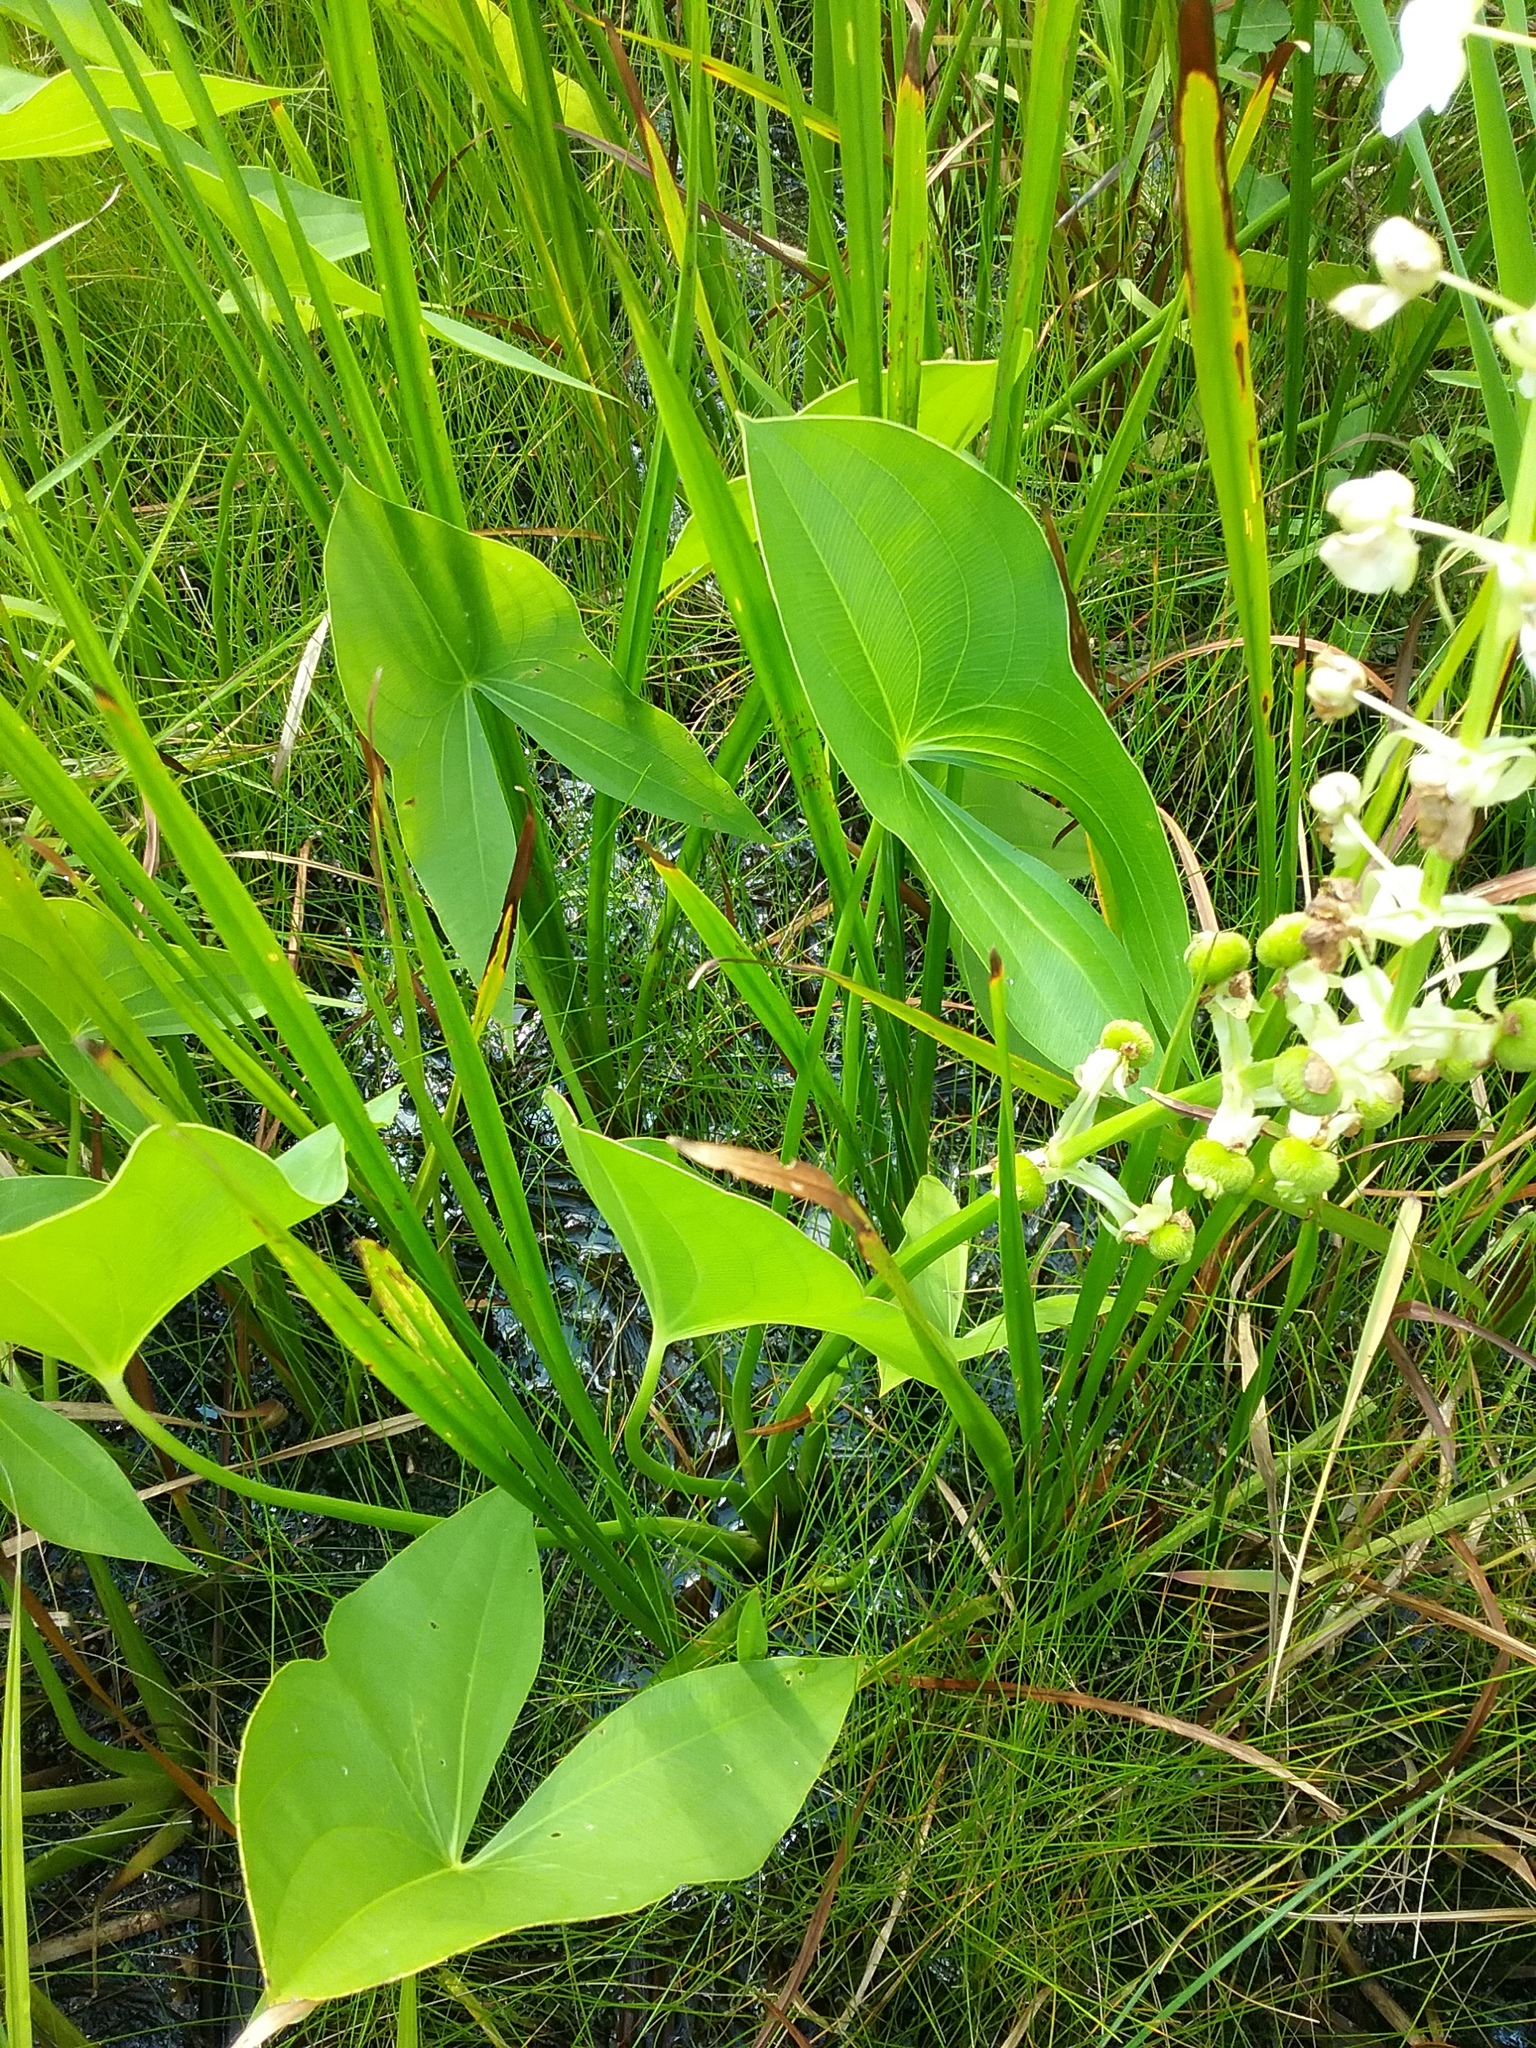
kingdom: Plantae
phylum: Tracheophyta
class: Liliopsida
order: Alismatales
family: Alismataceae
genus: Sagittaria
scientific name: Sagittaria brevirostra
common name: Midwestern arrowhead
